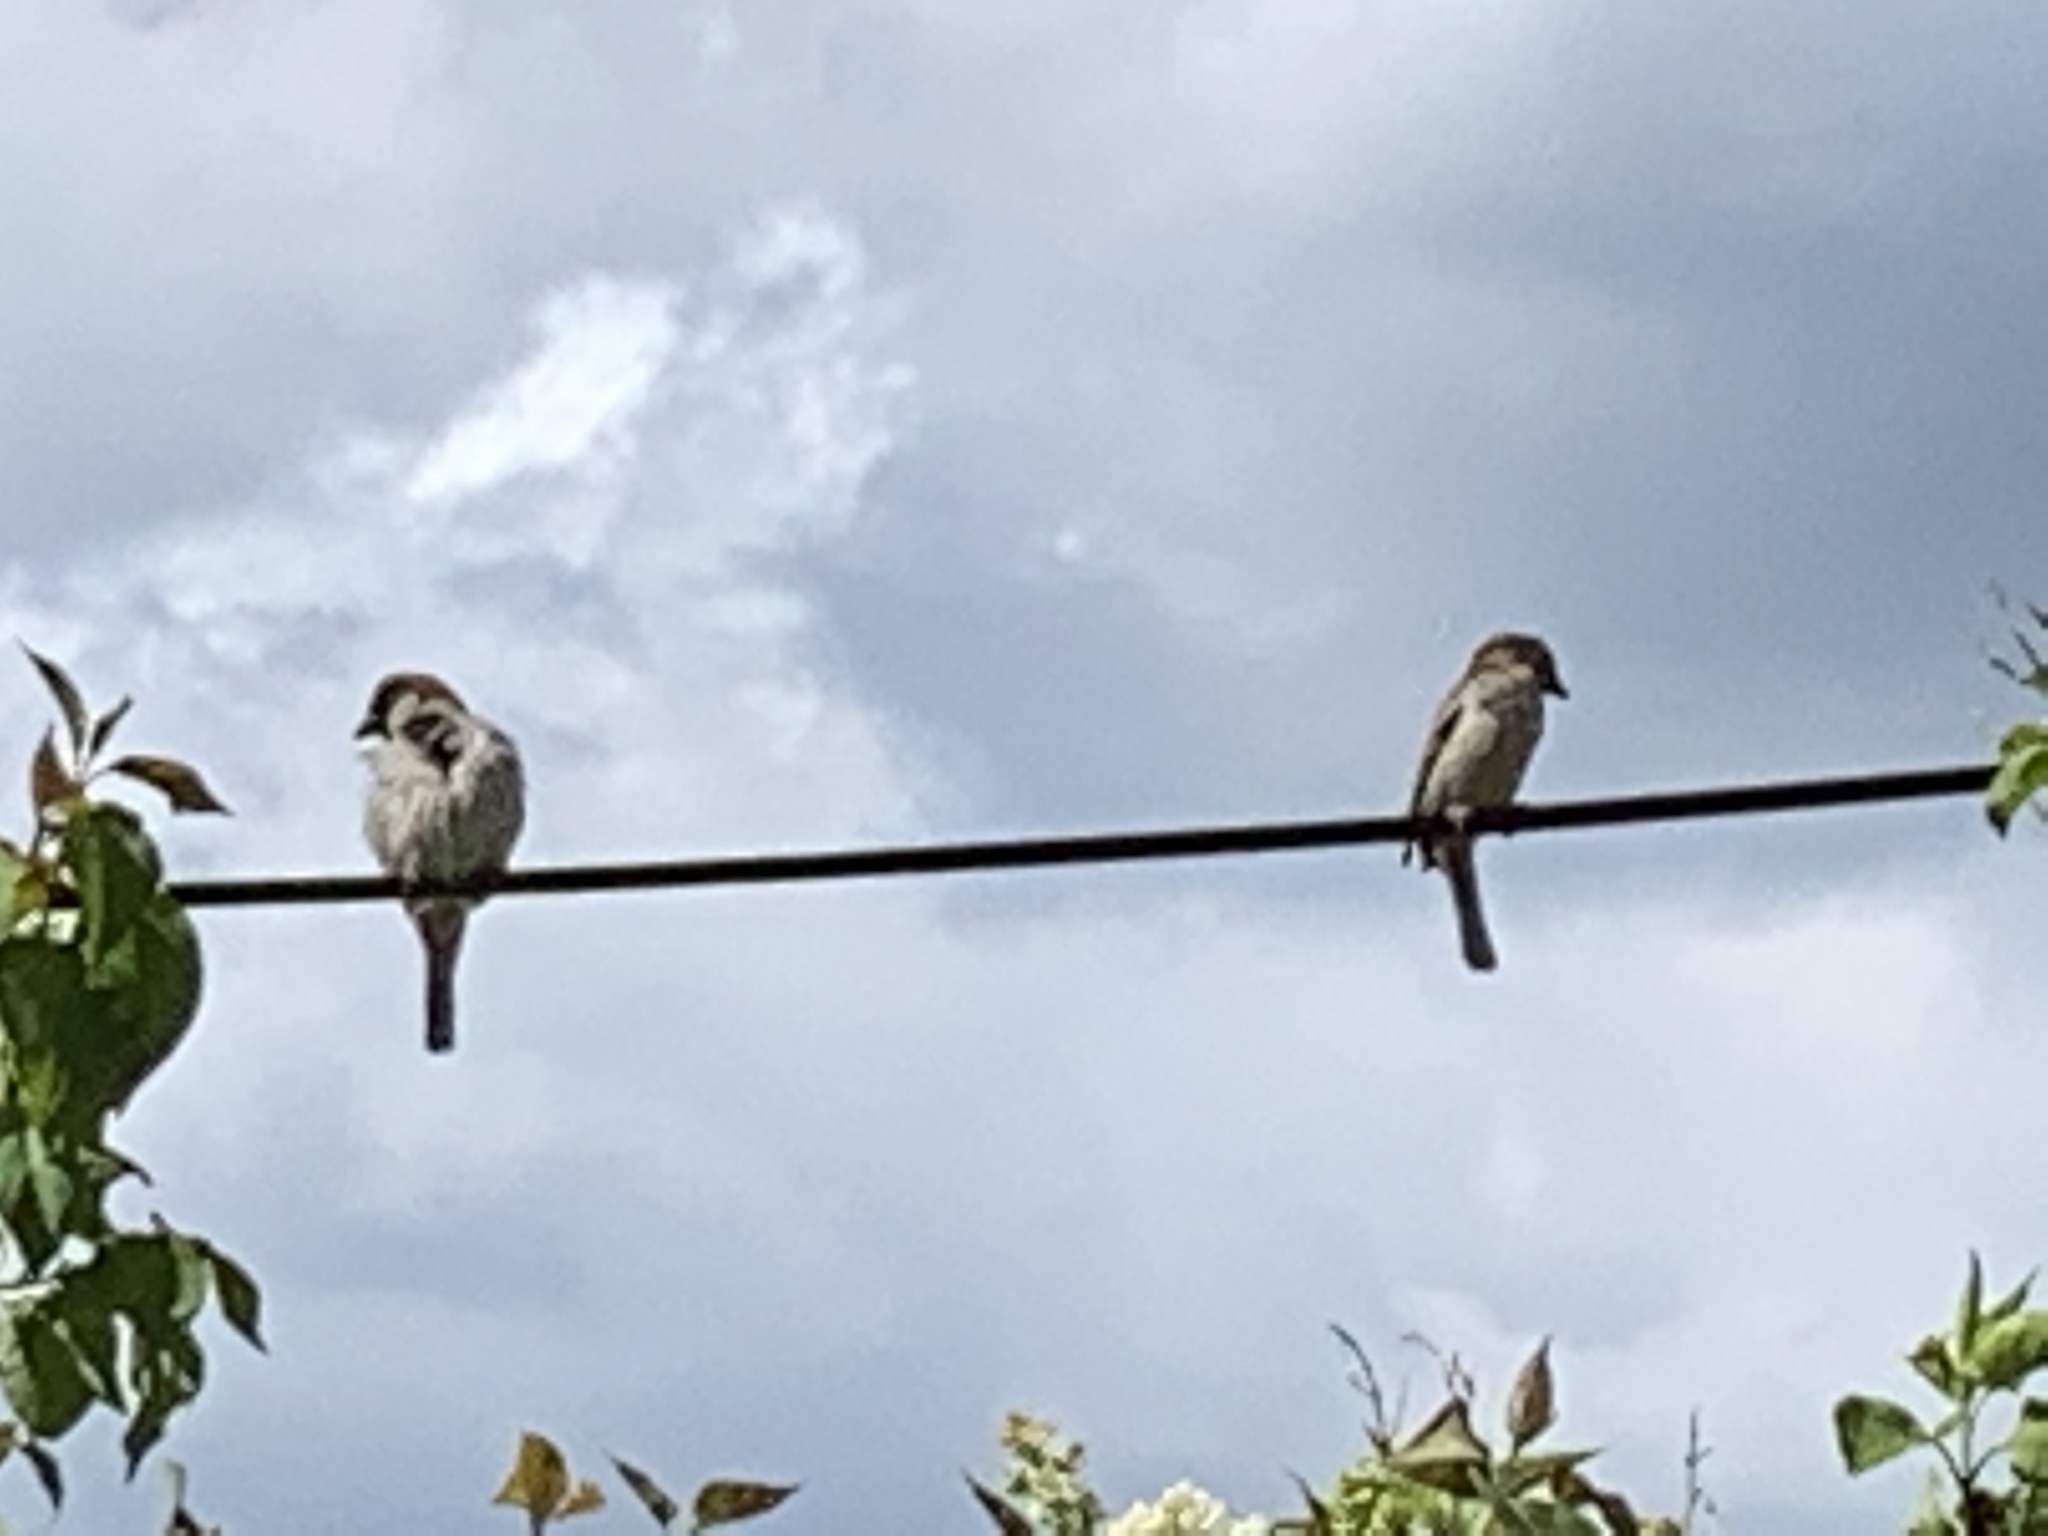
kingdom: Animalia
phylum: Chordata
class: Aves
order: Passeriformes
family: Passeridae
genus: Passer
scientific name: Passer domesticus
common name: House sparrow
